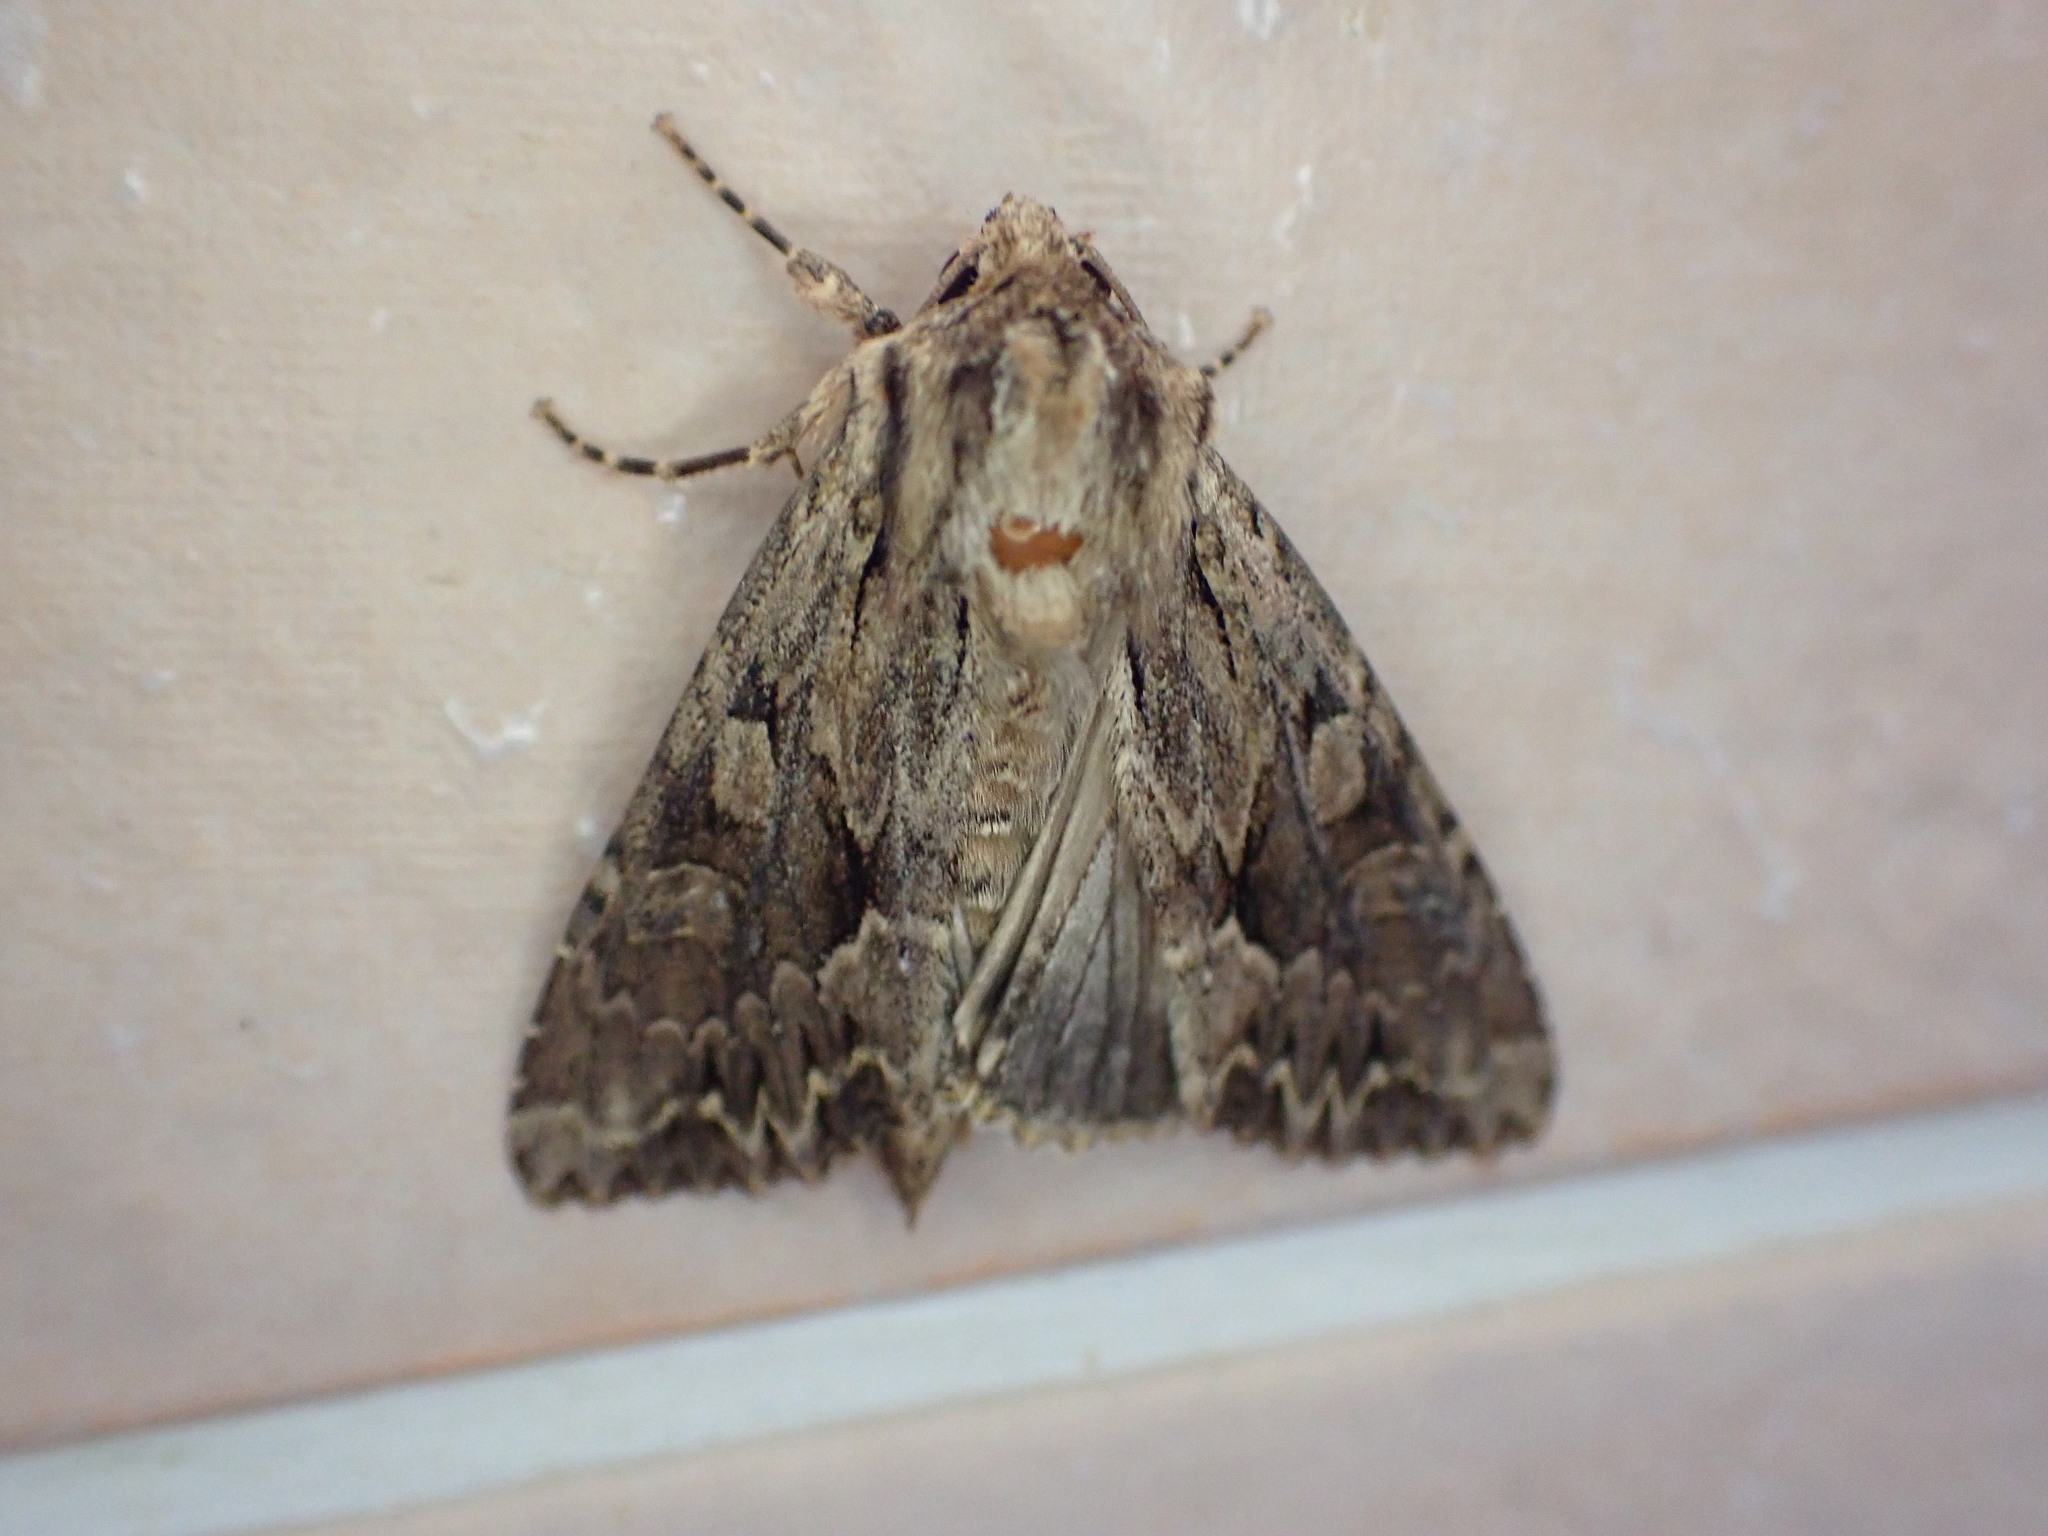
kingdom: Animalia
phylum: Arthropoda
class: Insecta
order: Lepidoptera
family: Noctuidae
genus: Apamea
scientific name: Apamea monoglypha
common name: Dark arches
